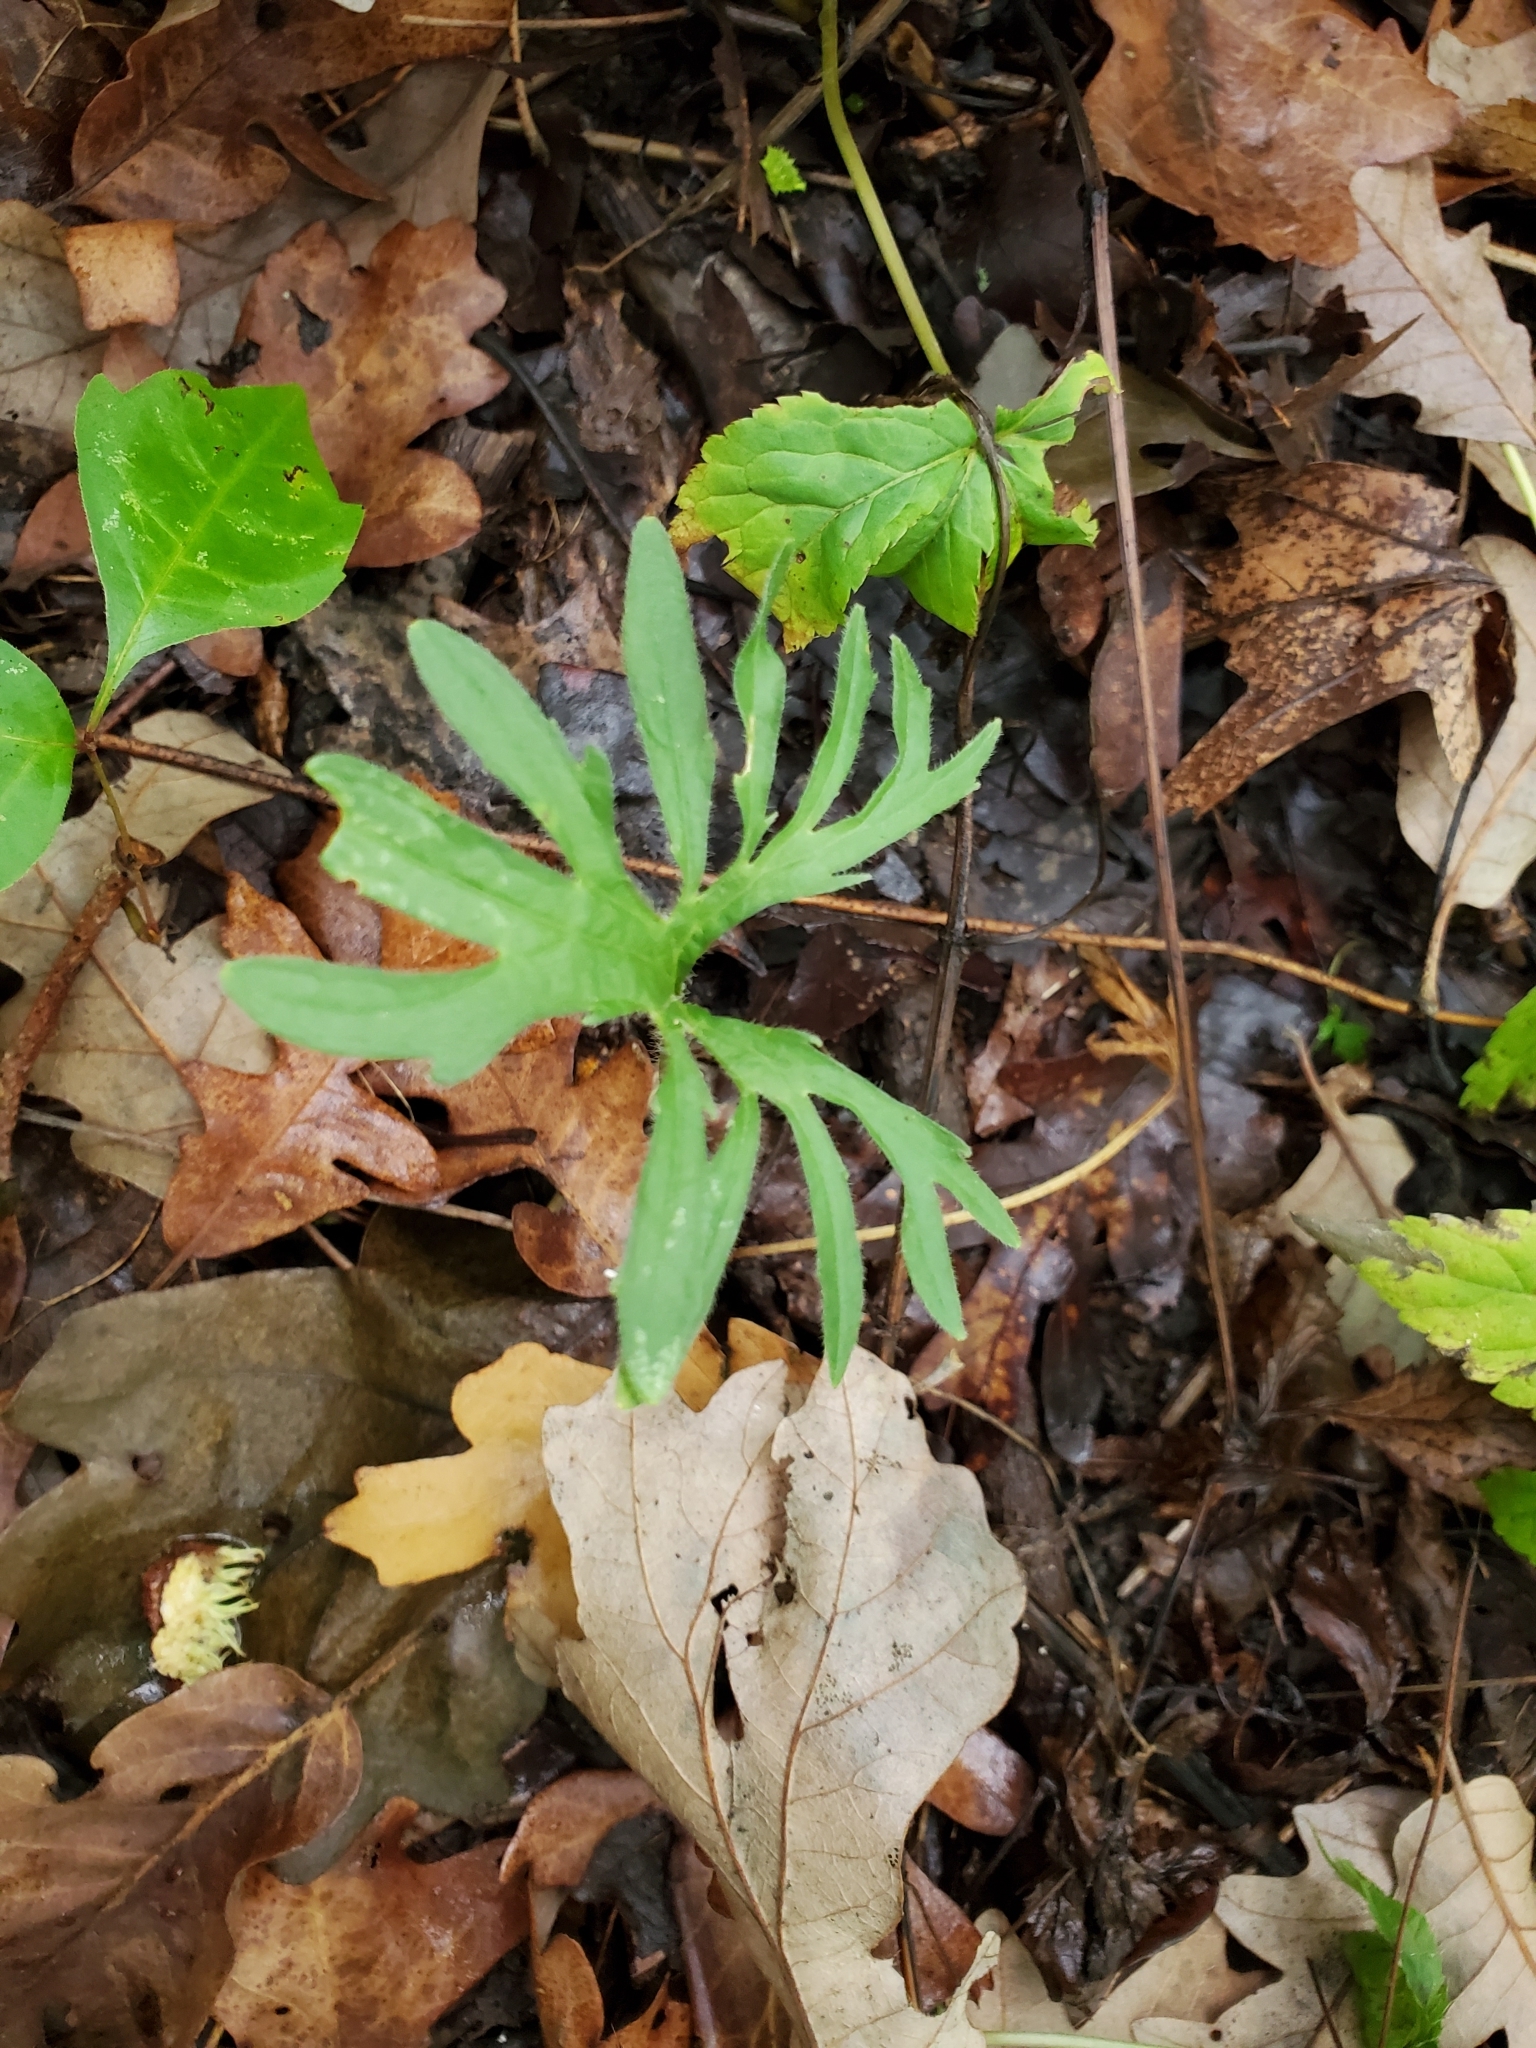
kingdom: Plantae
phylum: Tracheophyta
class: Magnoliopsida
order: Malpighiales
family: Violaceae
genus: Viola
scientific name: Viola subsinuata
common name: Wood violet
